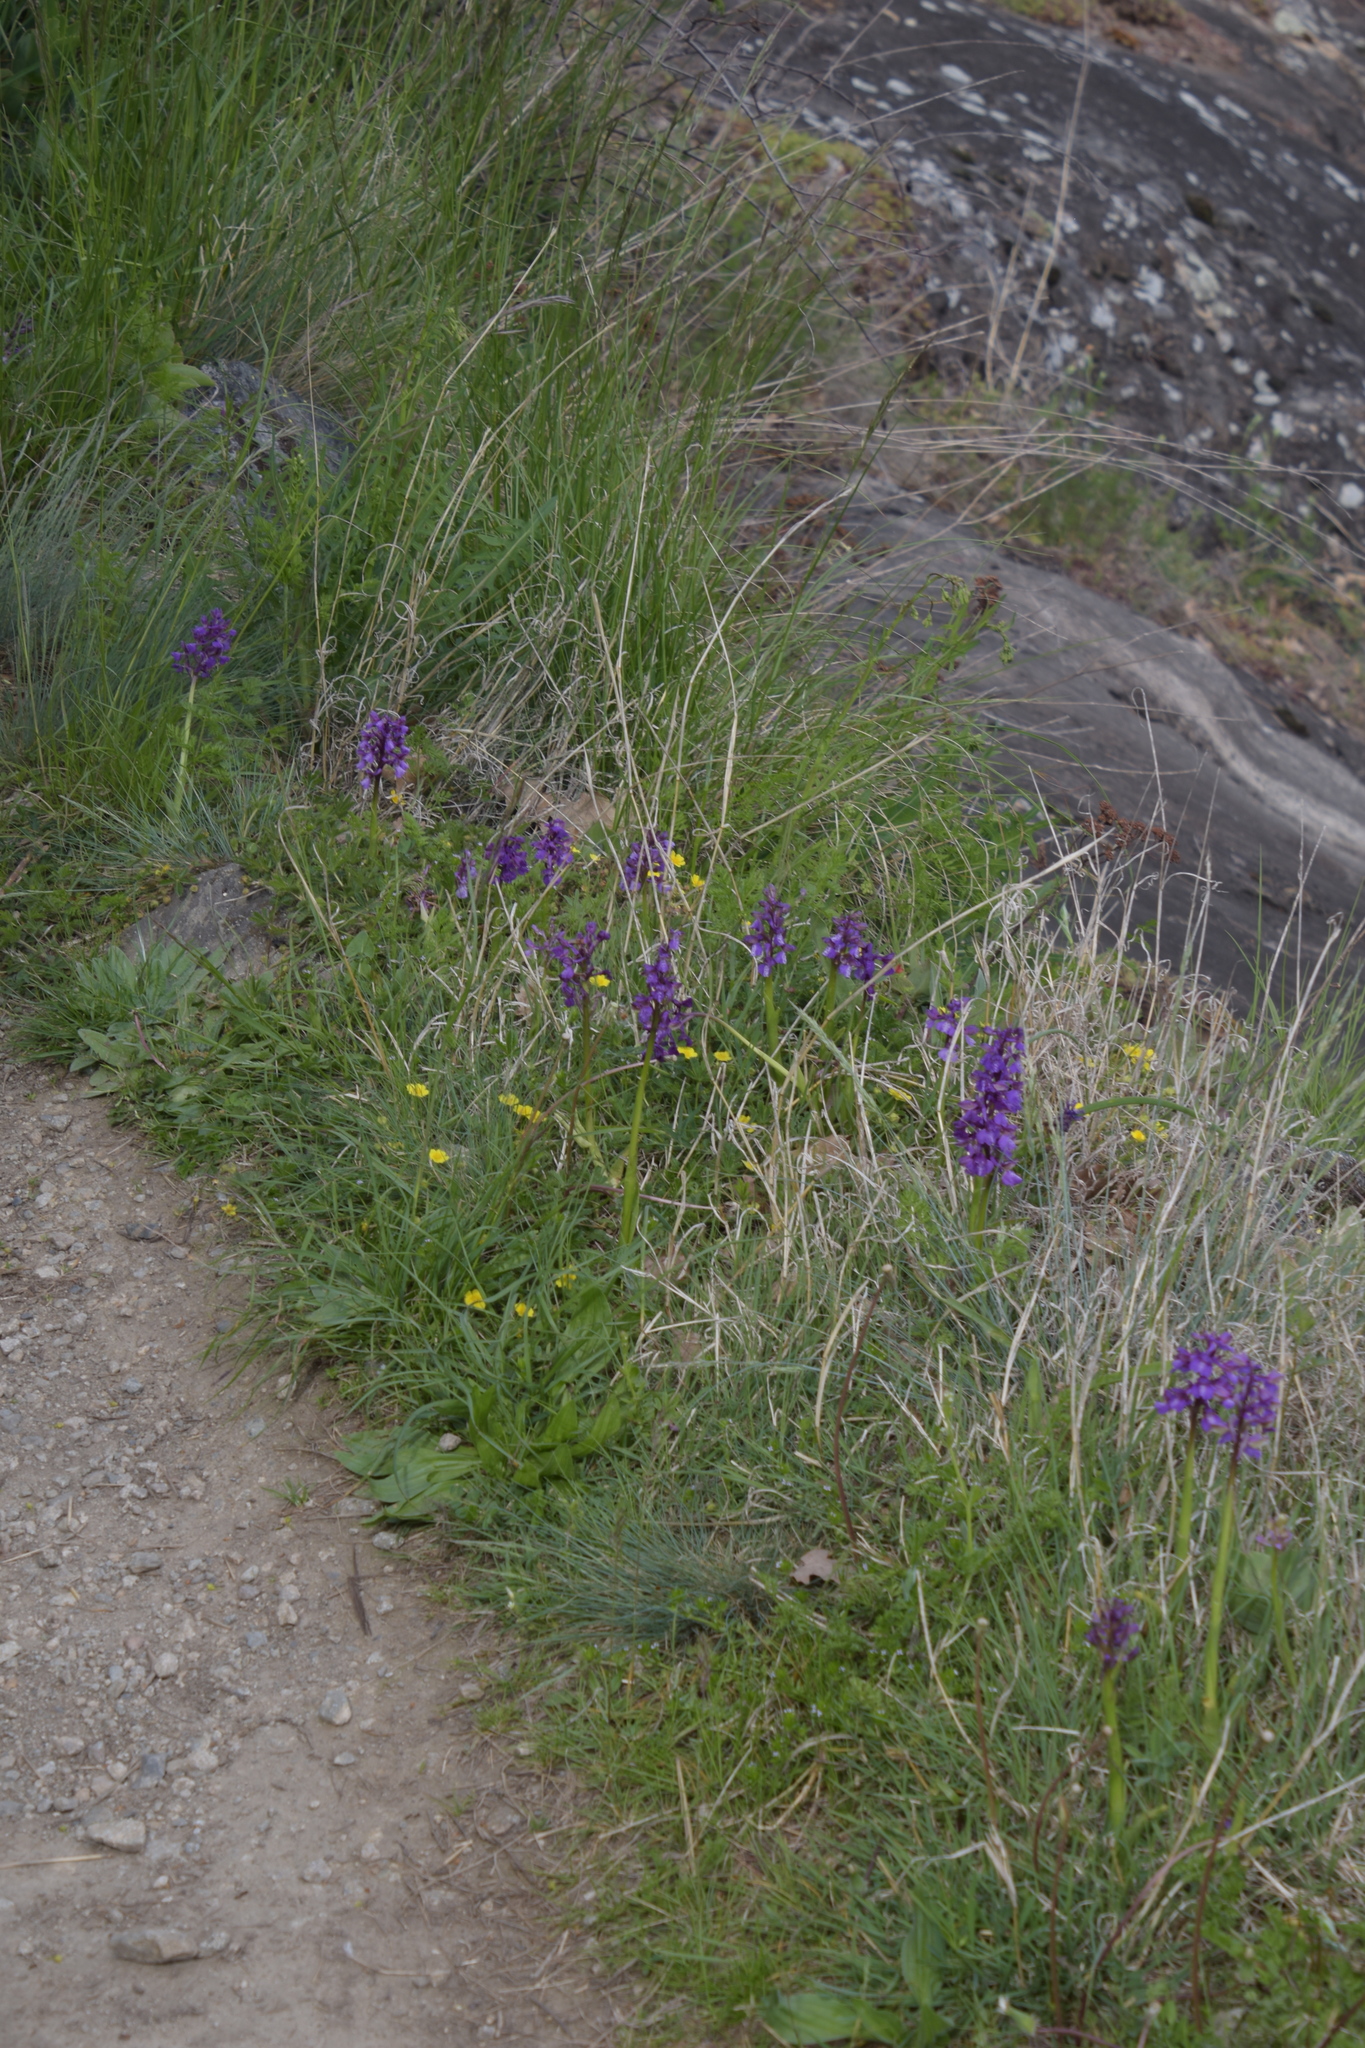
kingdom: Plantae
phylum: Tracheophyta
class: Liliopsida
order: Asparagales
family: Orchidaceae
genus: Anacamptis
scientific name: Anacamptis morio
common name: Green-winged orchid
